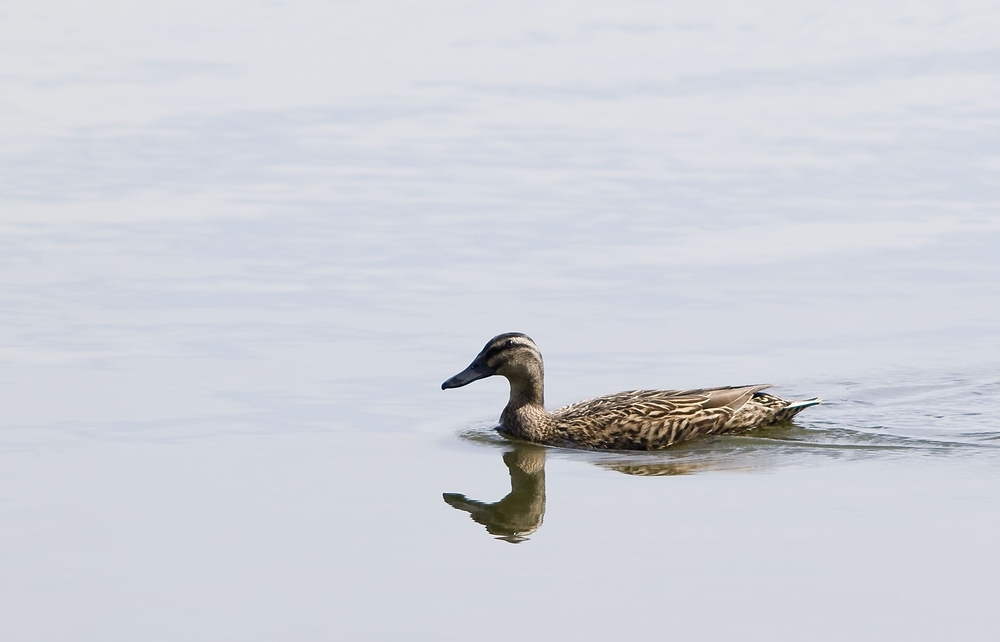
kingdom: Animalia
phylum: Chordata
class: Aves
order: Anseriformes
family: Anatidae
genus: Anas
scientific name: Anas platyrhynchos
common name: Mallard
